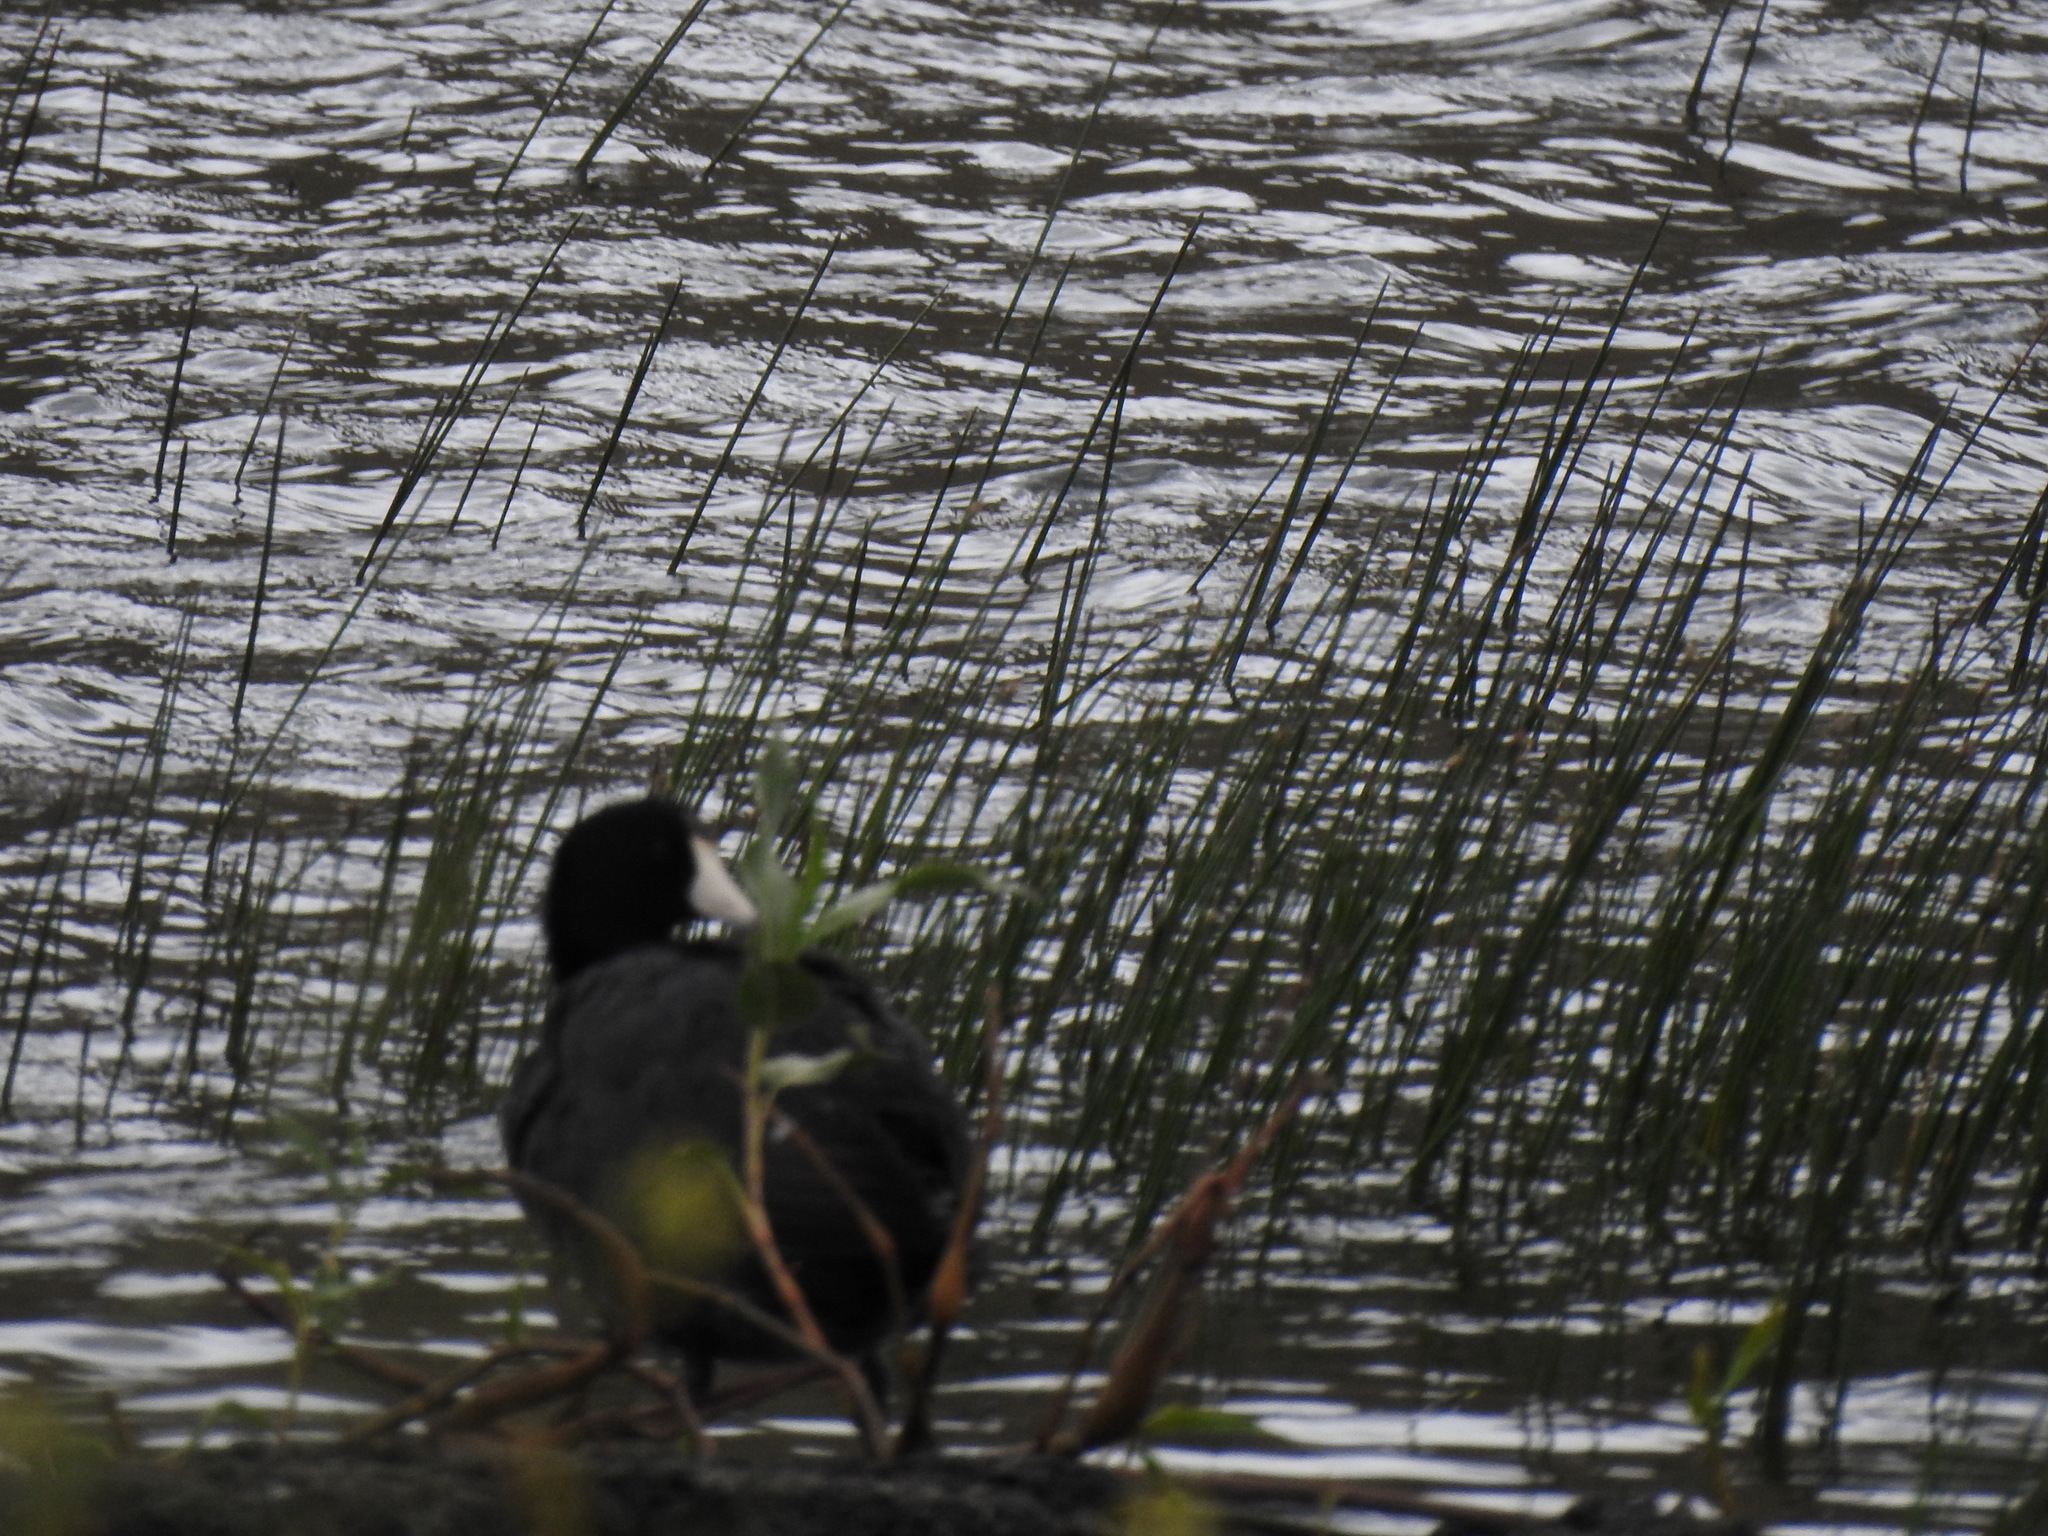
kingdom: Animalia
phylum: Chordata
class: Aves
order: Gruiformes
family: Rallidae
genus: Fulica
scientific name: Fulica americana
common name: American coot
